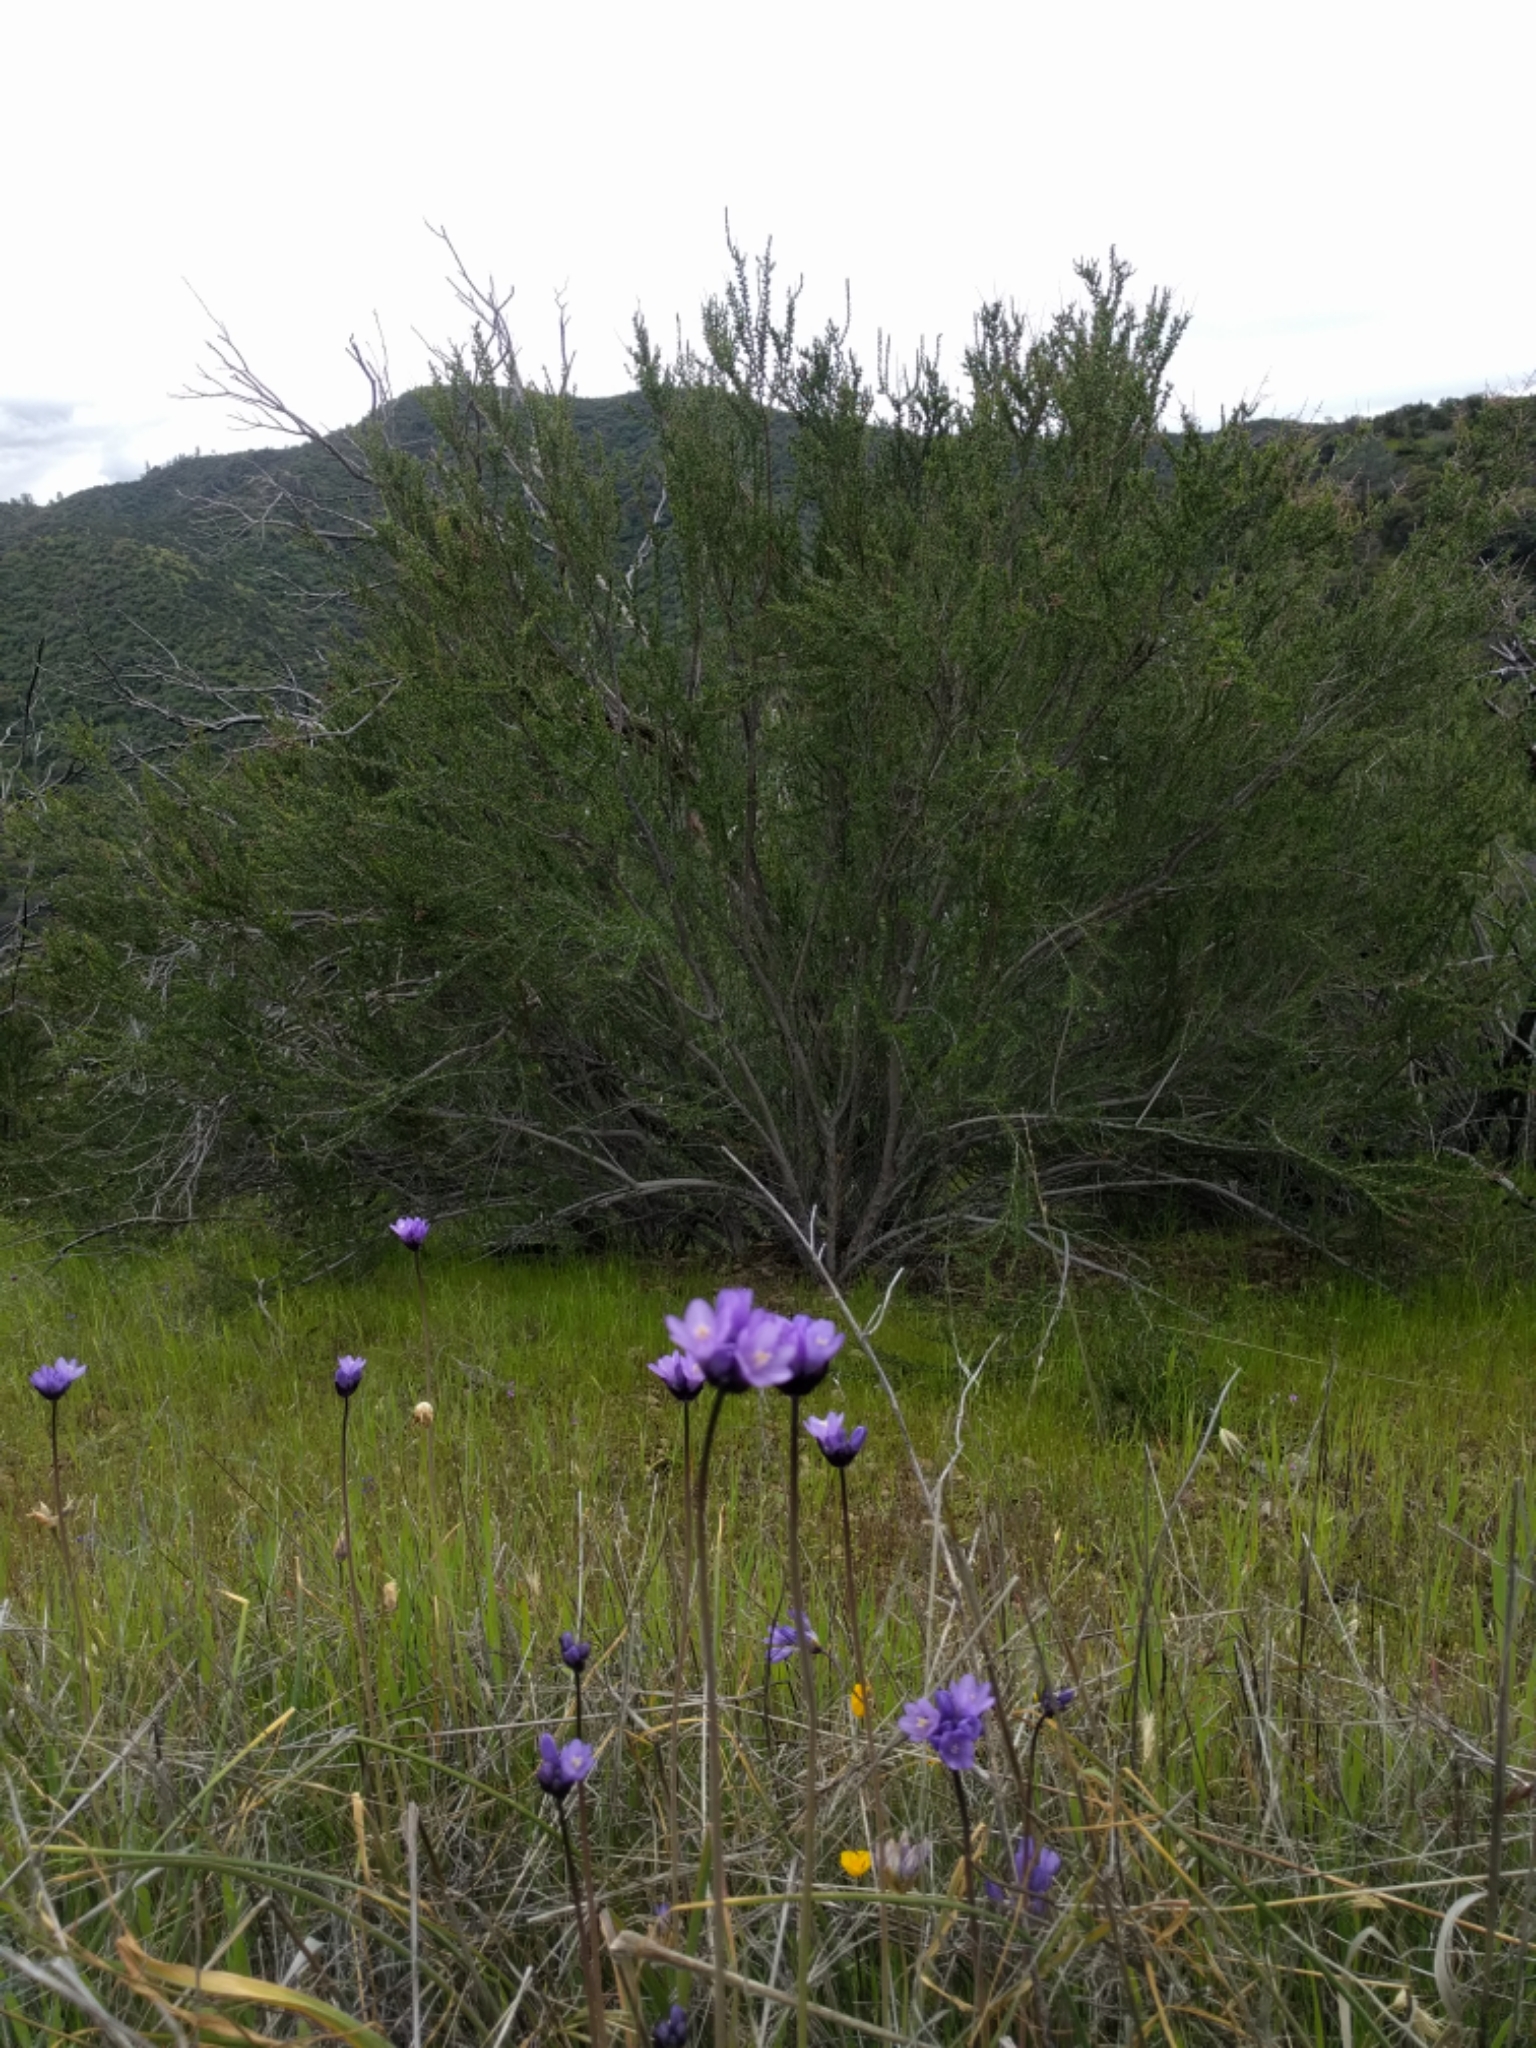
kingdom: Plantae
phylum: Tracheophyta
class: Liliopsida
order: Asparagales
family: Asparagaceae
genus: Dipterostemon
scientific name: Dipterostemon capitatus
